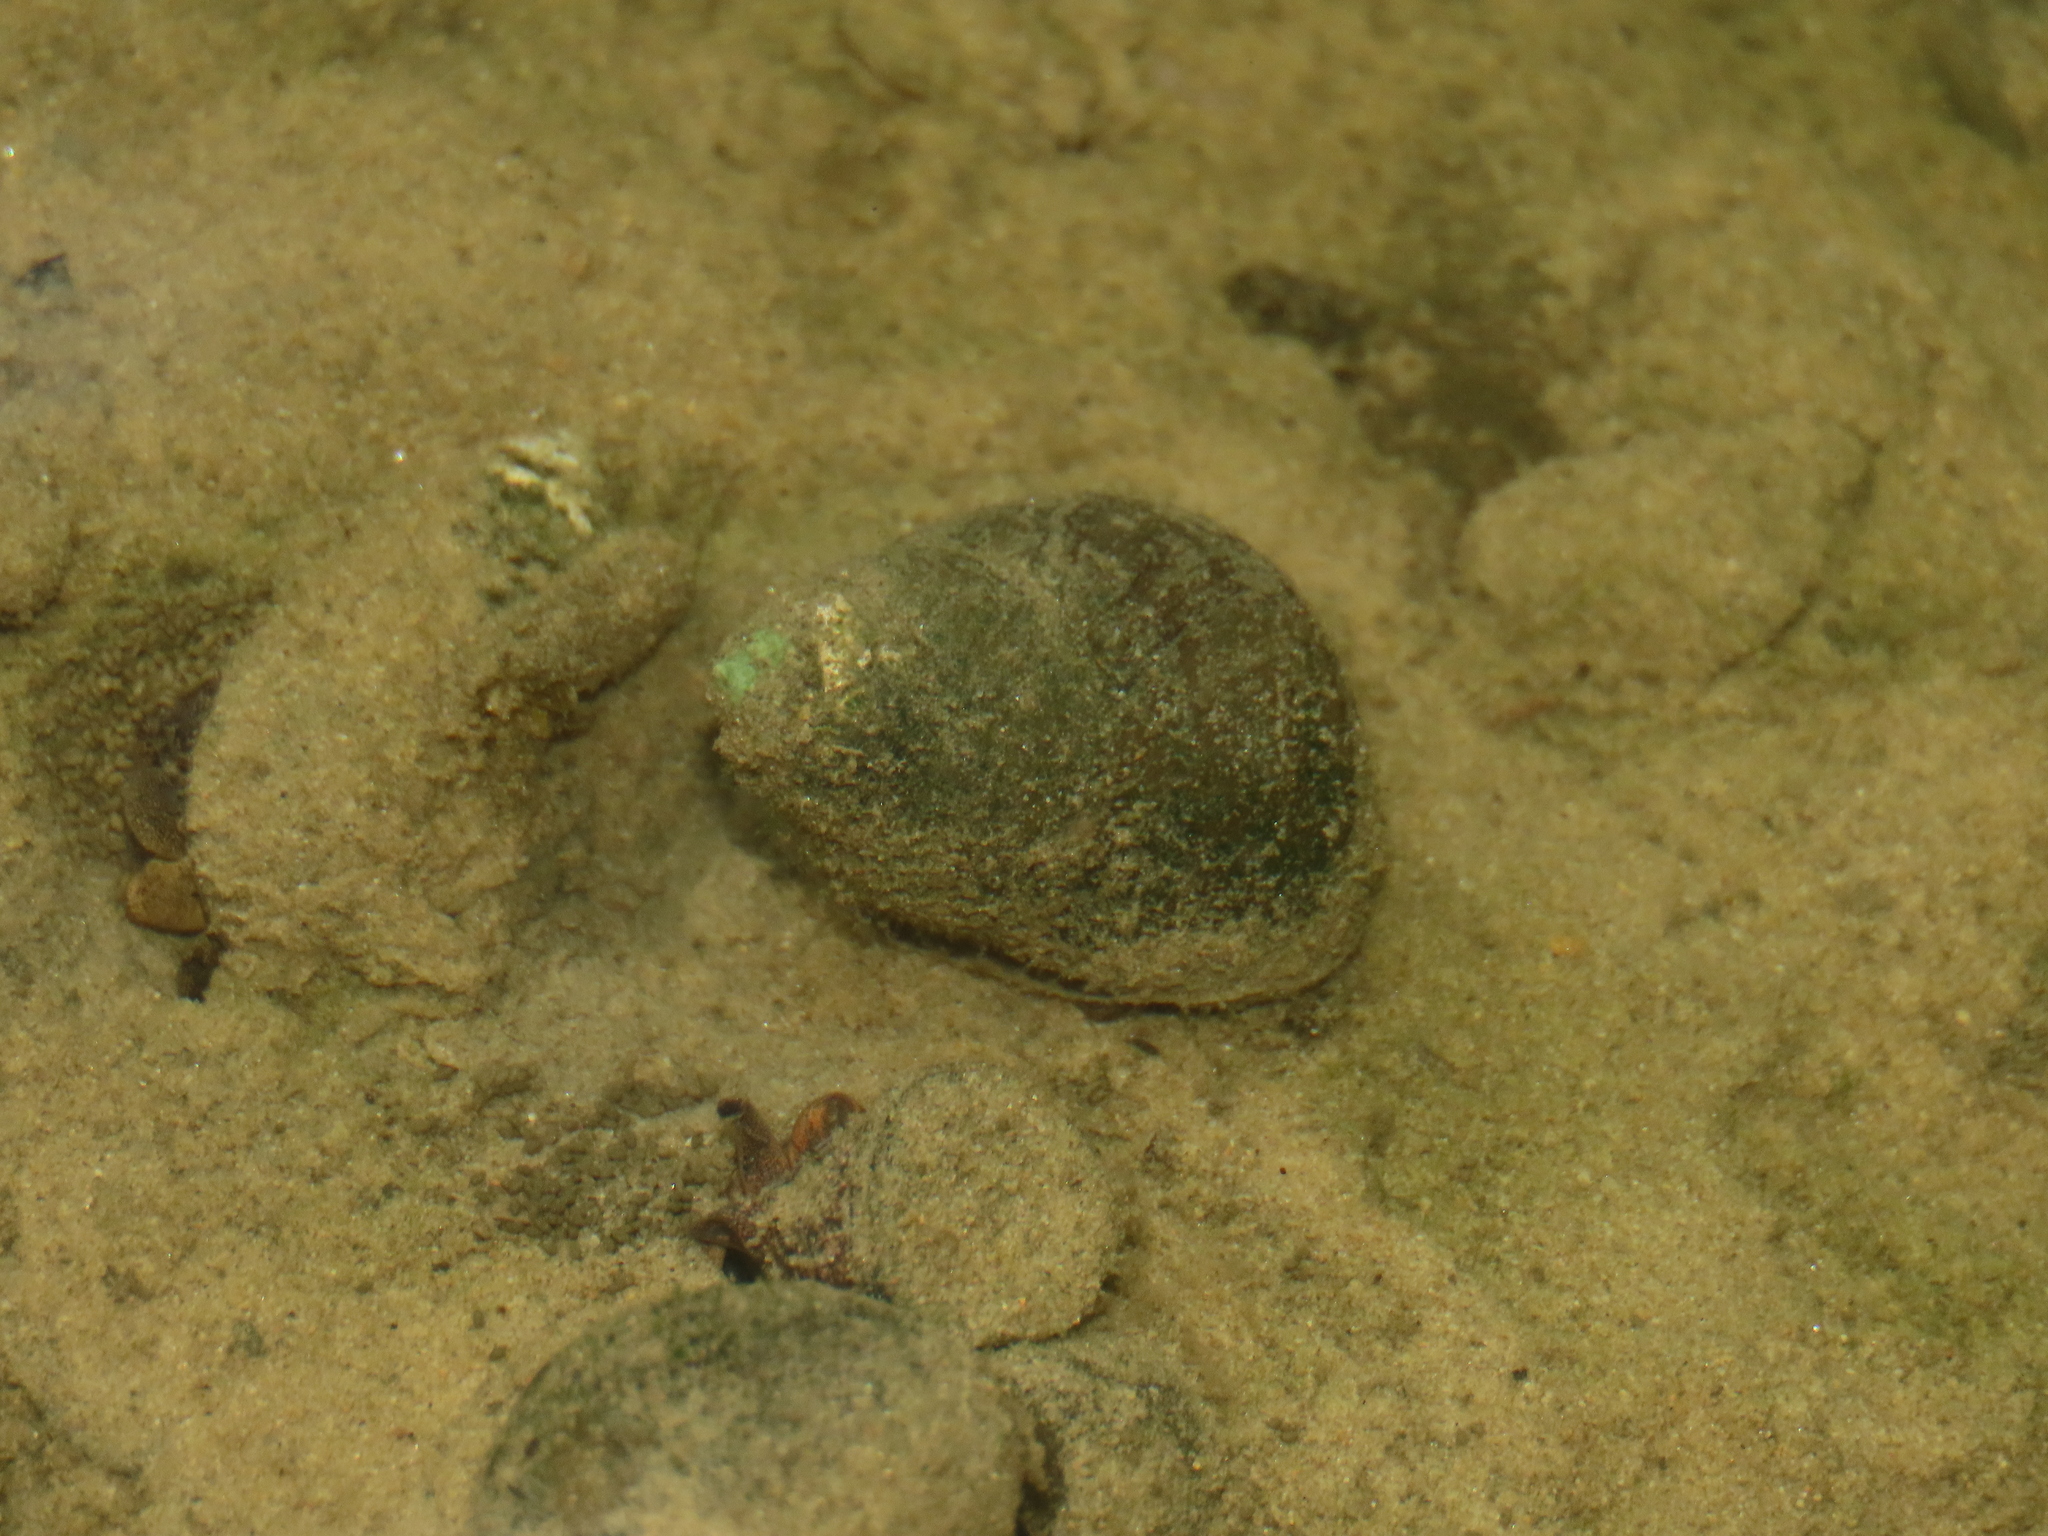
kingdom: Animalia
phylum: Mollusca
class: Gastropoda
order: Architaenioglossa
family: Viviparidae
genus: Sinotaia
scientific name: Sinotaia quadrata
